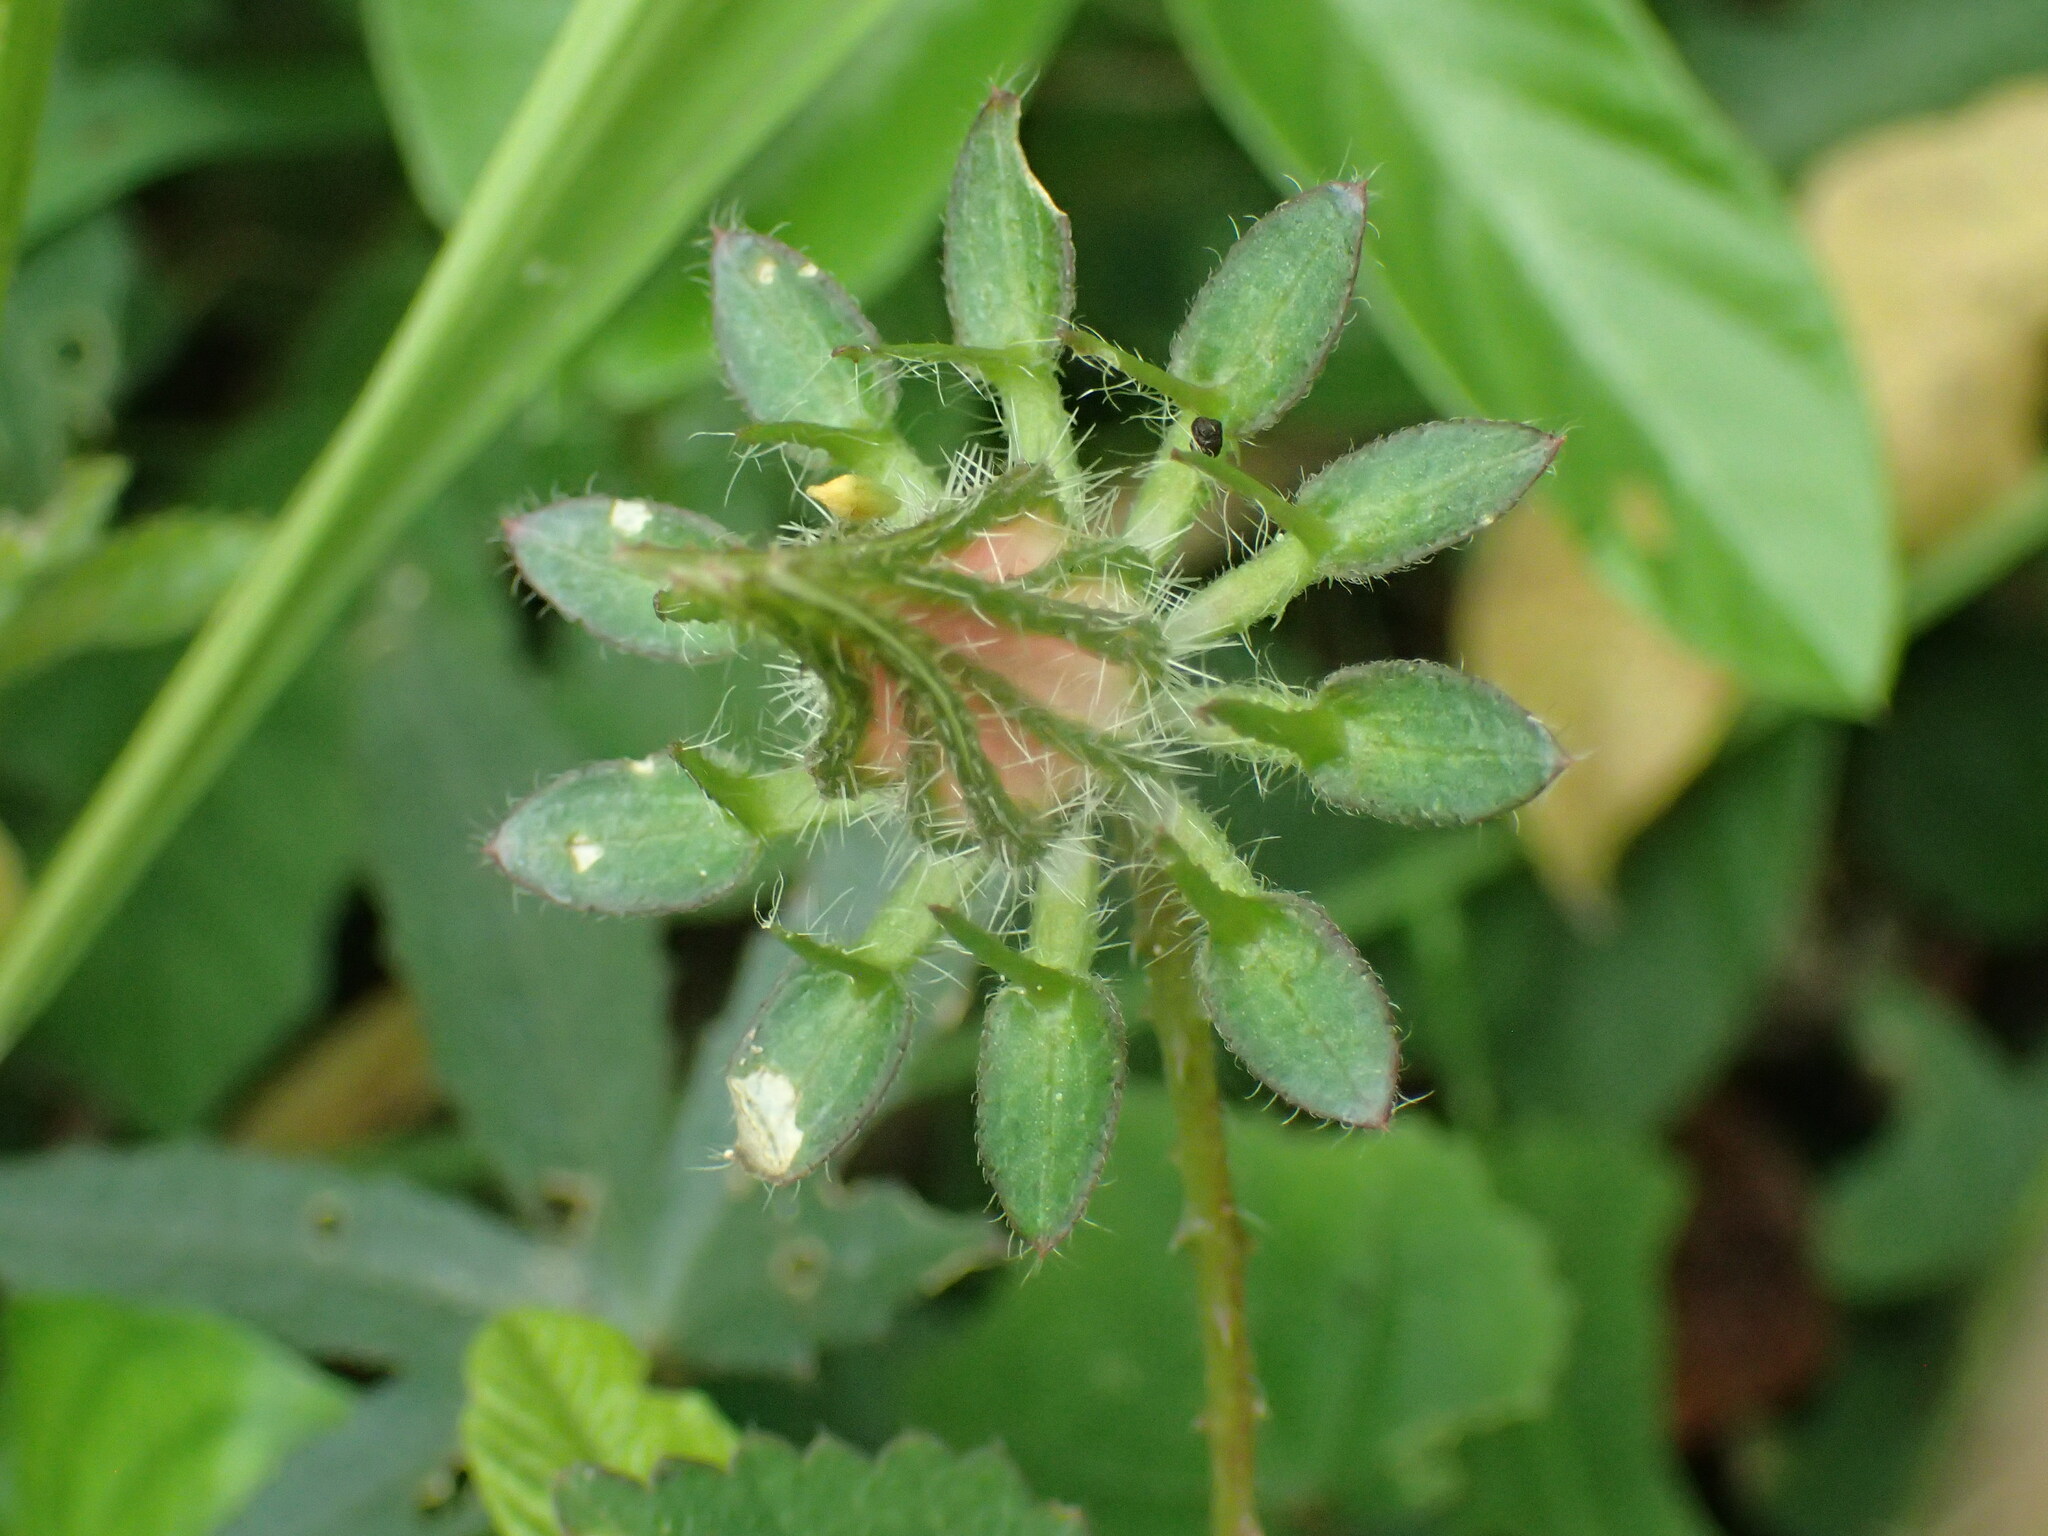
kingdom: Plantae
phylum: Tracheophyta
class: Magnoliopsida
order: Malvales
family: Malvaceae
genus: Hibiscus
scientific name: Hibiscus surattensis
